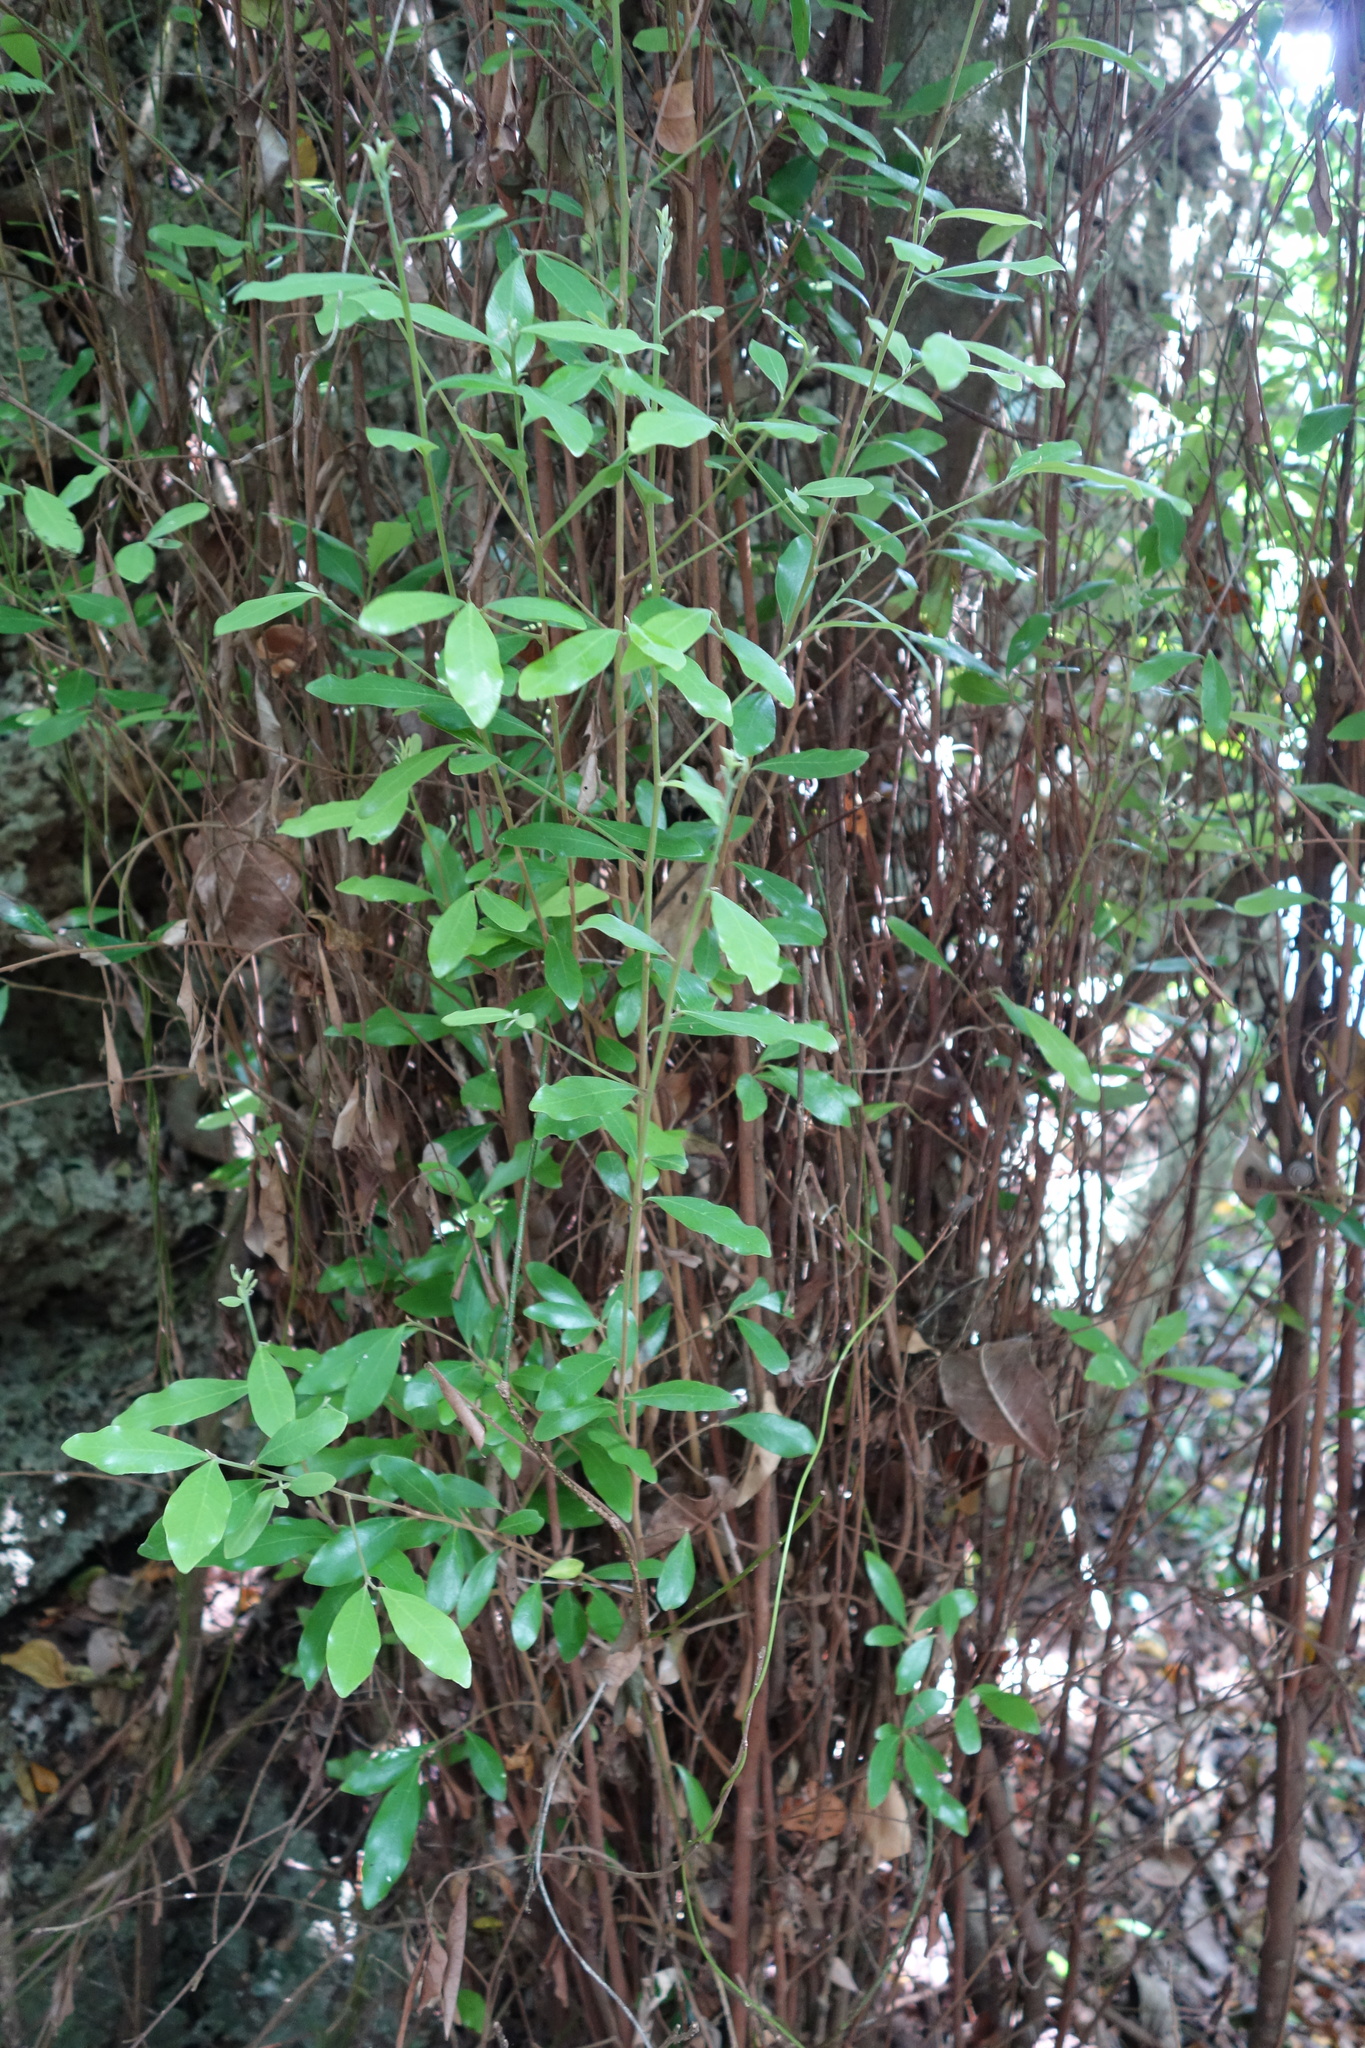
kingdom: Plantae
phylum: Tracheophyta
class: Magnoliopsida
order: Laurales
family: Lauraceae
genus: Litsea
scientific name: Litsea hypophaea
